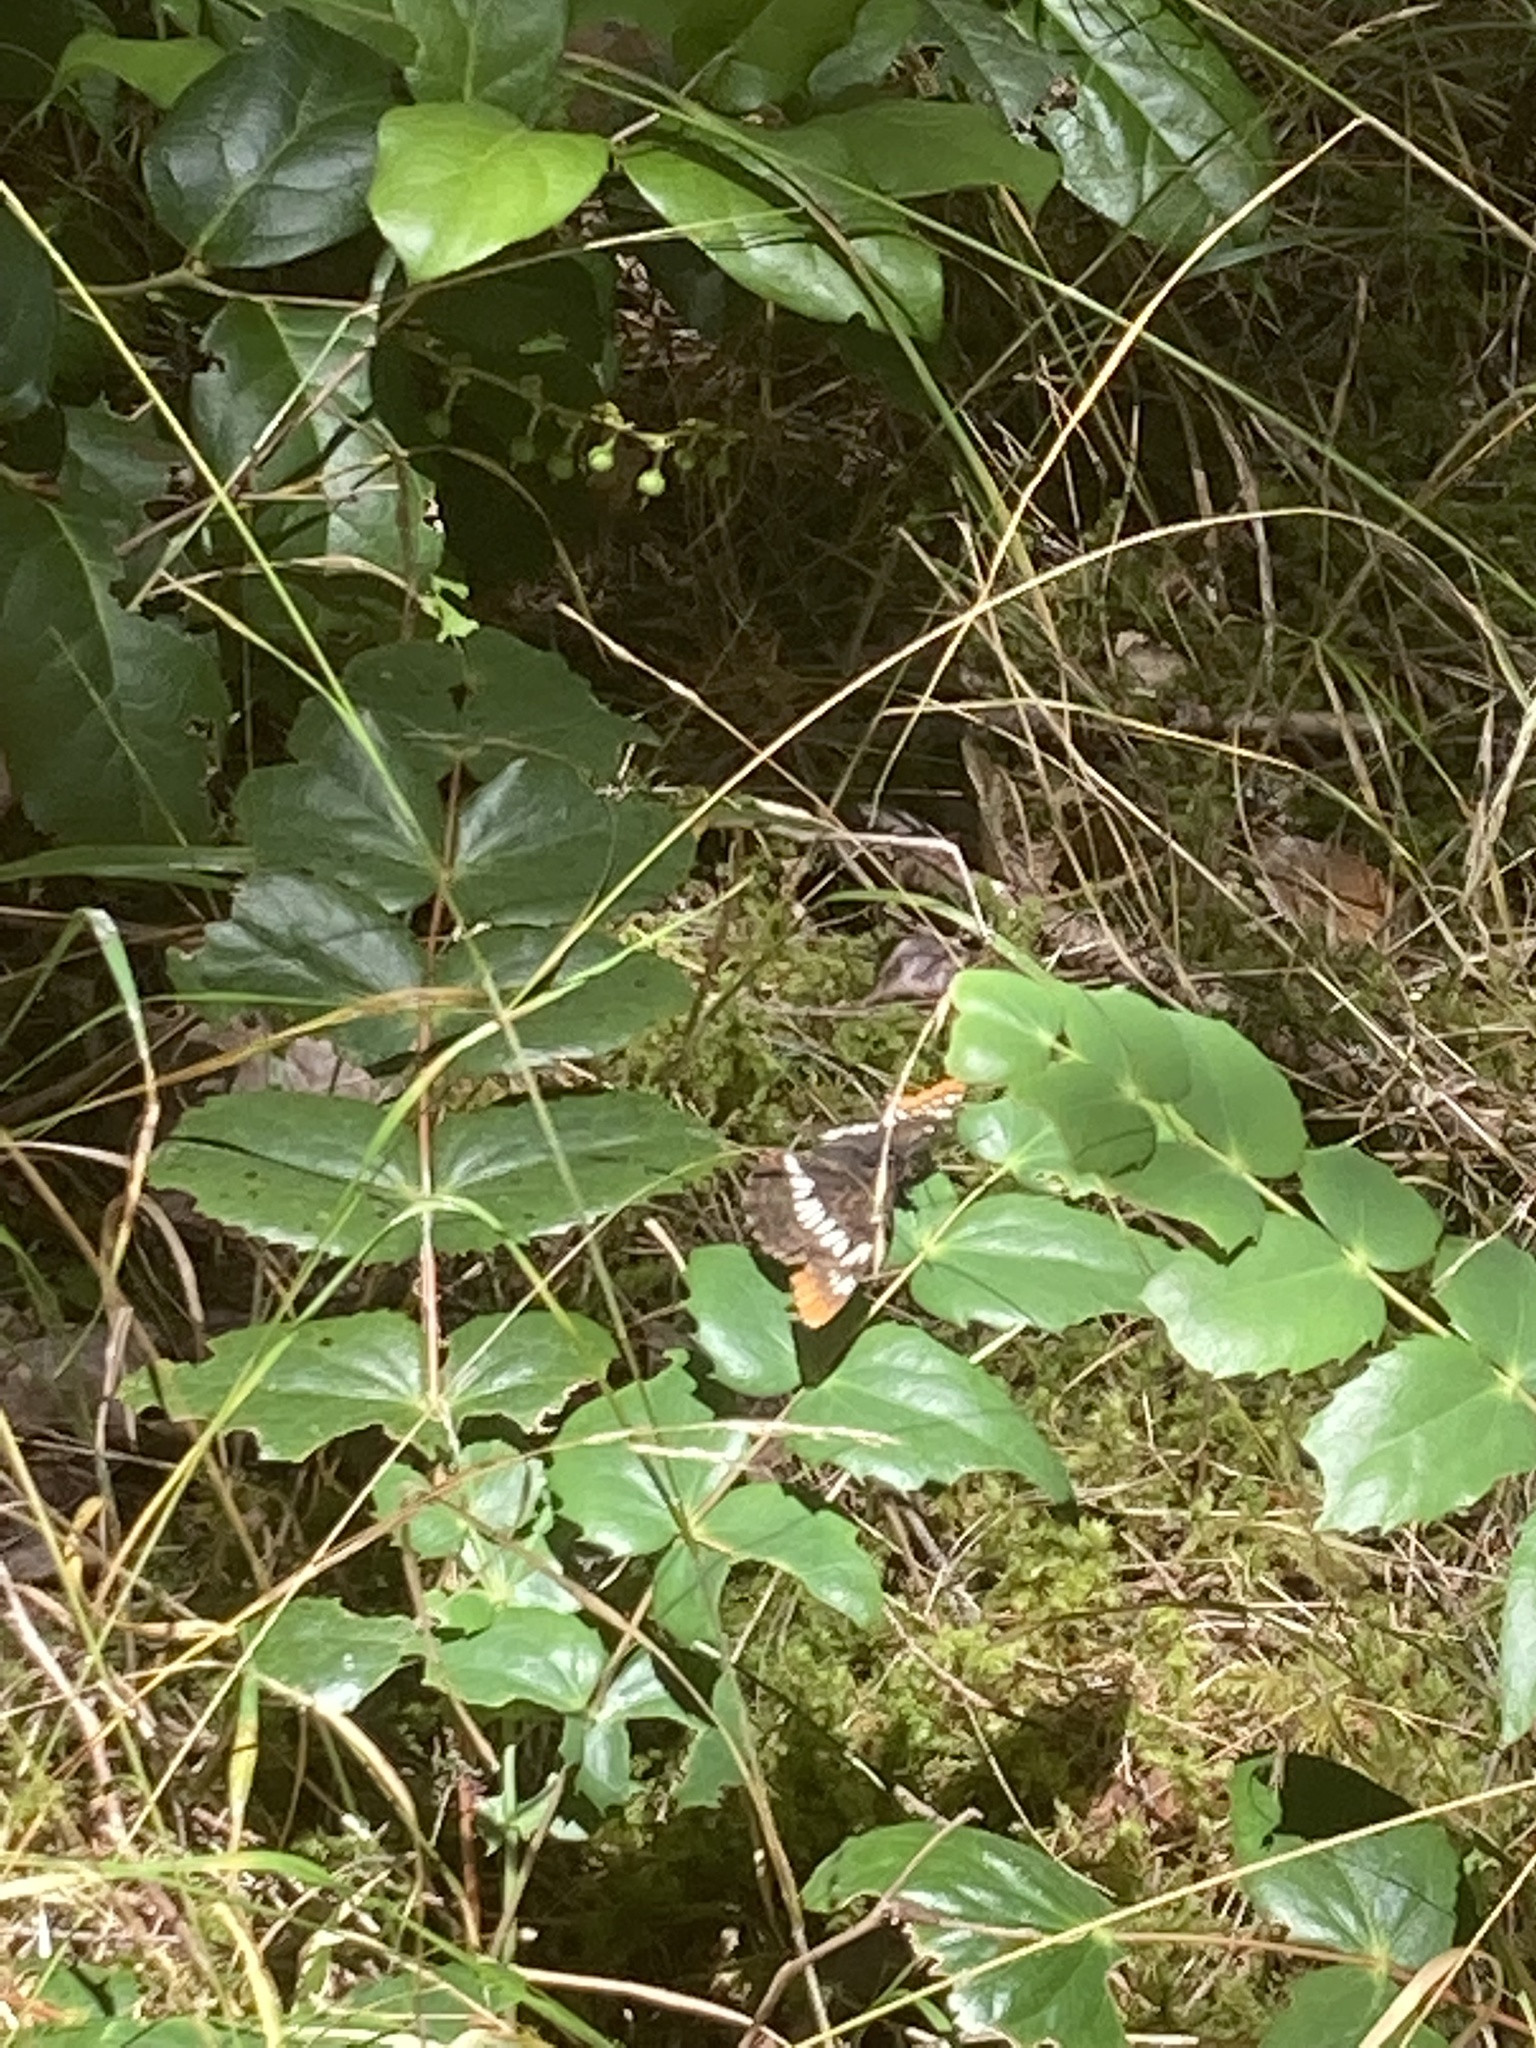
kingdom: Animalia
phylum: Arthropoda
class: Insecta
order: Lepidoptera
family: Nymphalidae
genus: Limenitis
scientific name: Limenitis lorquini
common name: Lorquin's admiral
